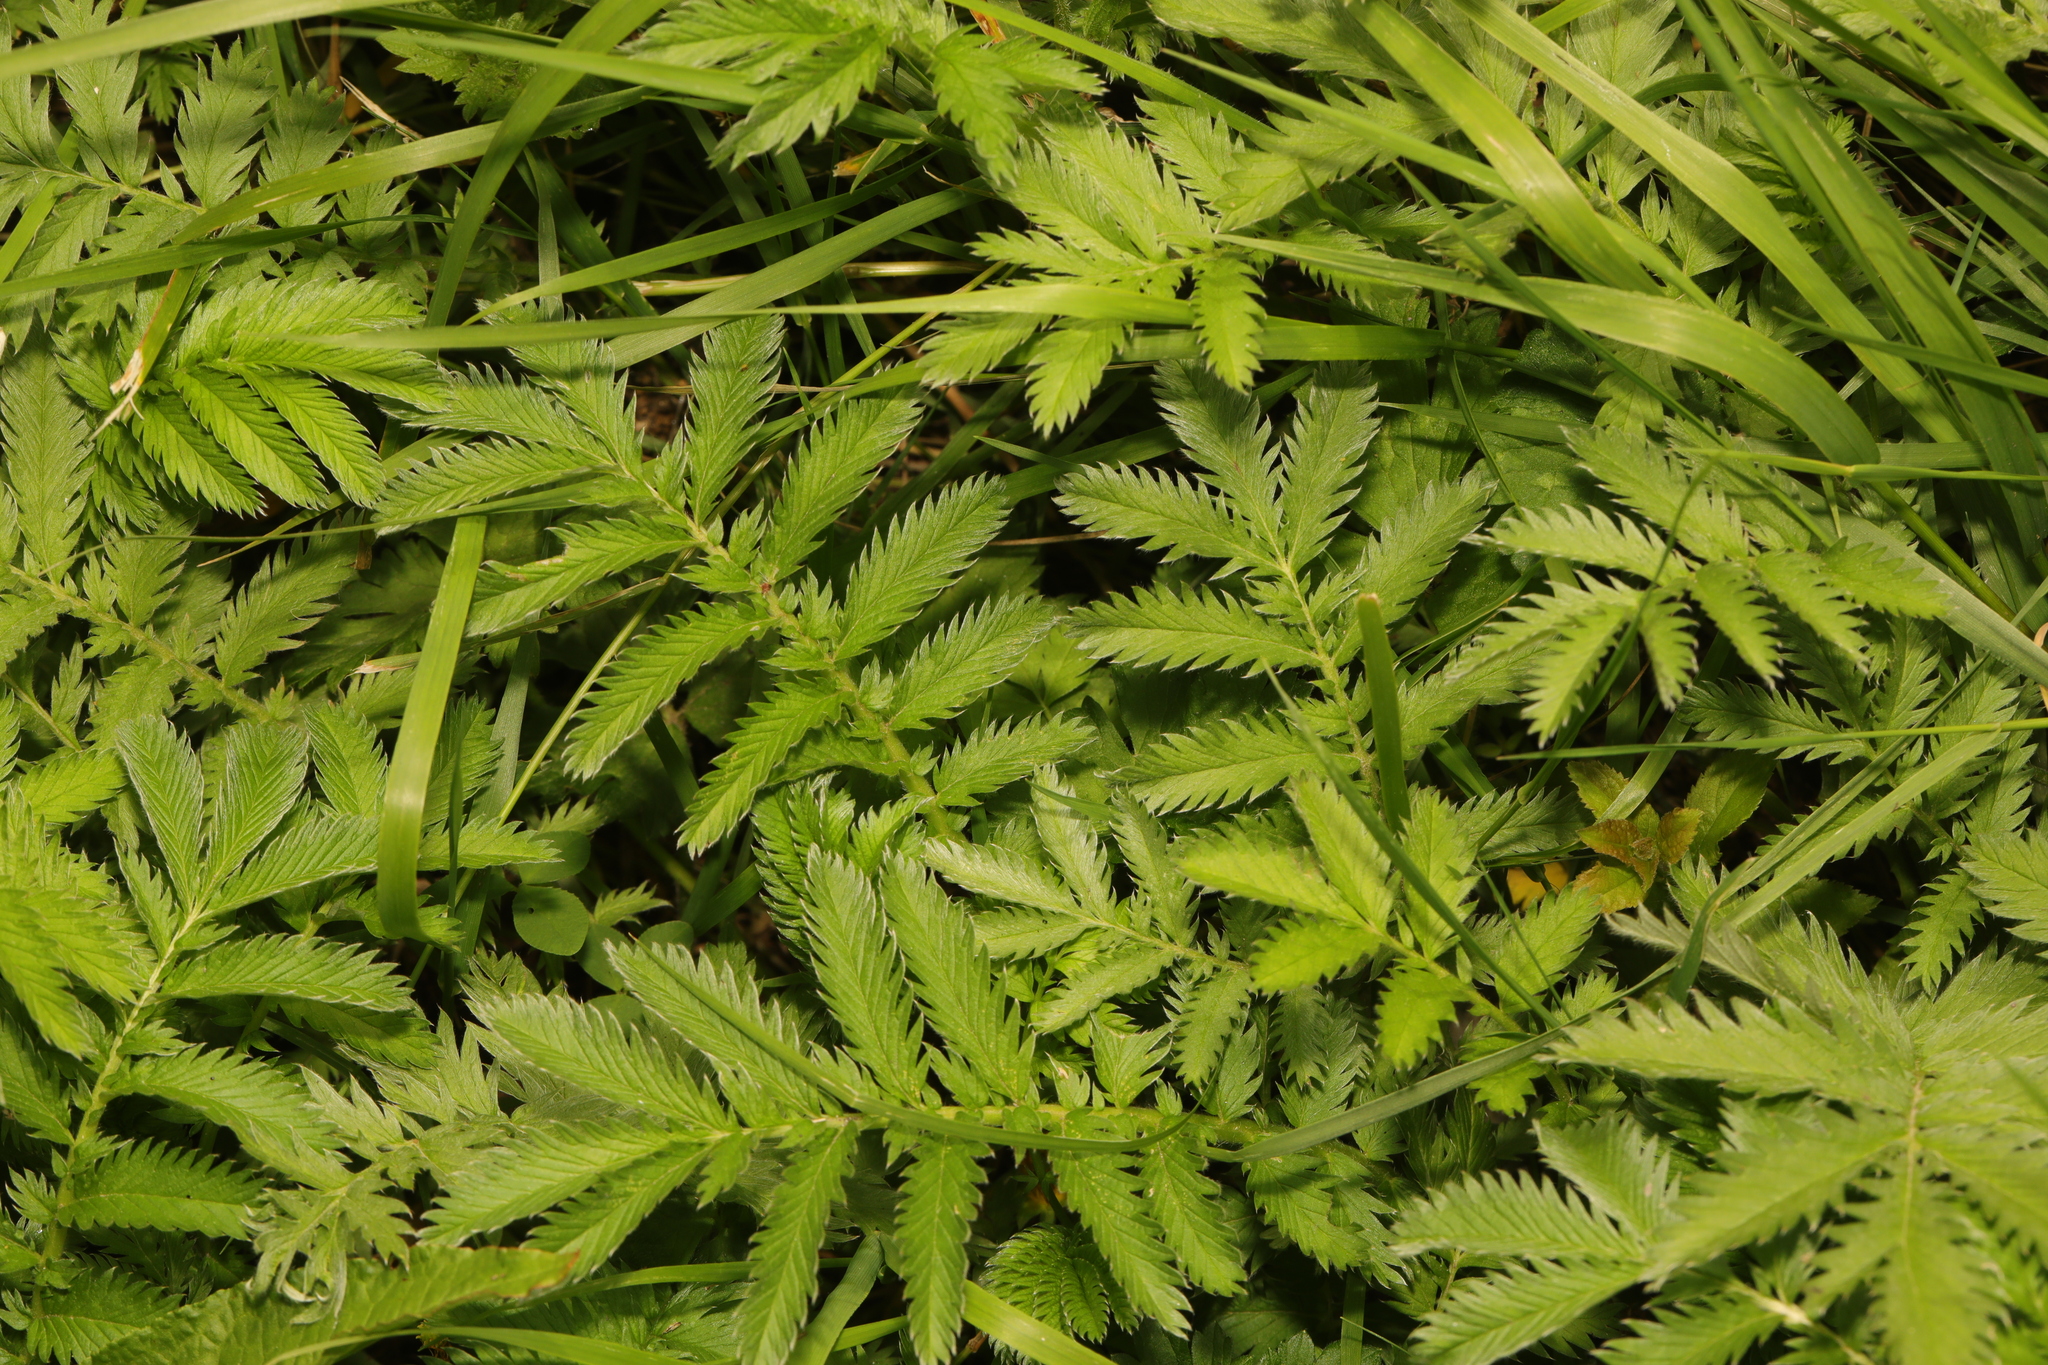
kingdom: Plantae
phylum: Tracheophyta
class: Magnoliopsida
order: Rosales
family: Rosaceae
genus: Argentina
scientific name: Argentina anserina
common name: Common silverweed
